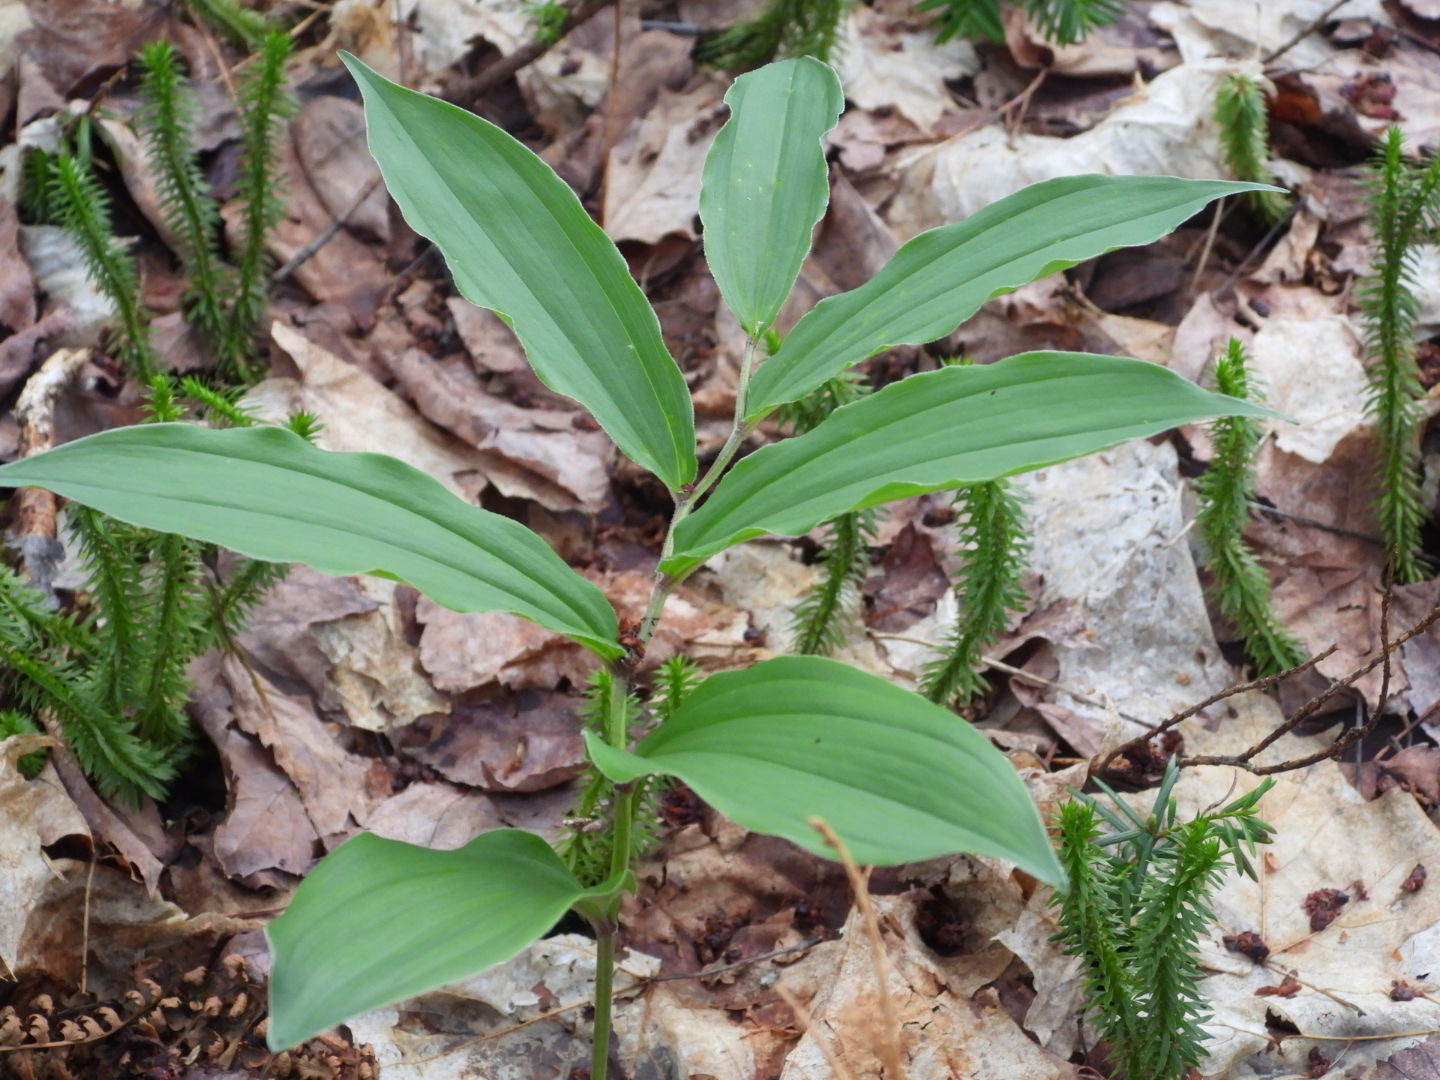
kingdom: Plantae
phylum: Tracheophyta
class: Liliopsida
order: Asparagales
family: Asparagaceae
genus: Maianthemum
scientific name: Maianthemum racemosum
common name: False spikenard
